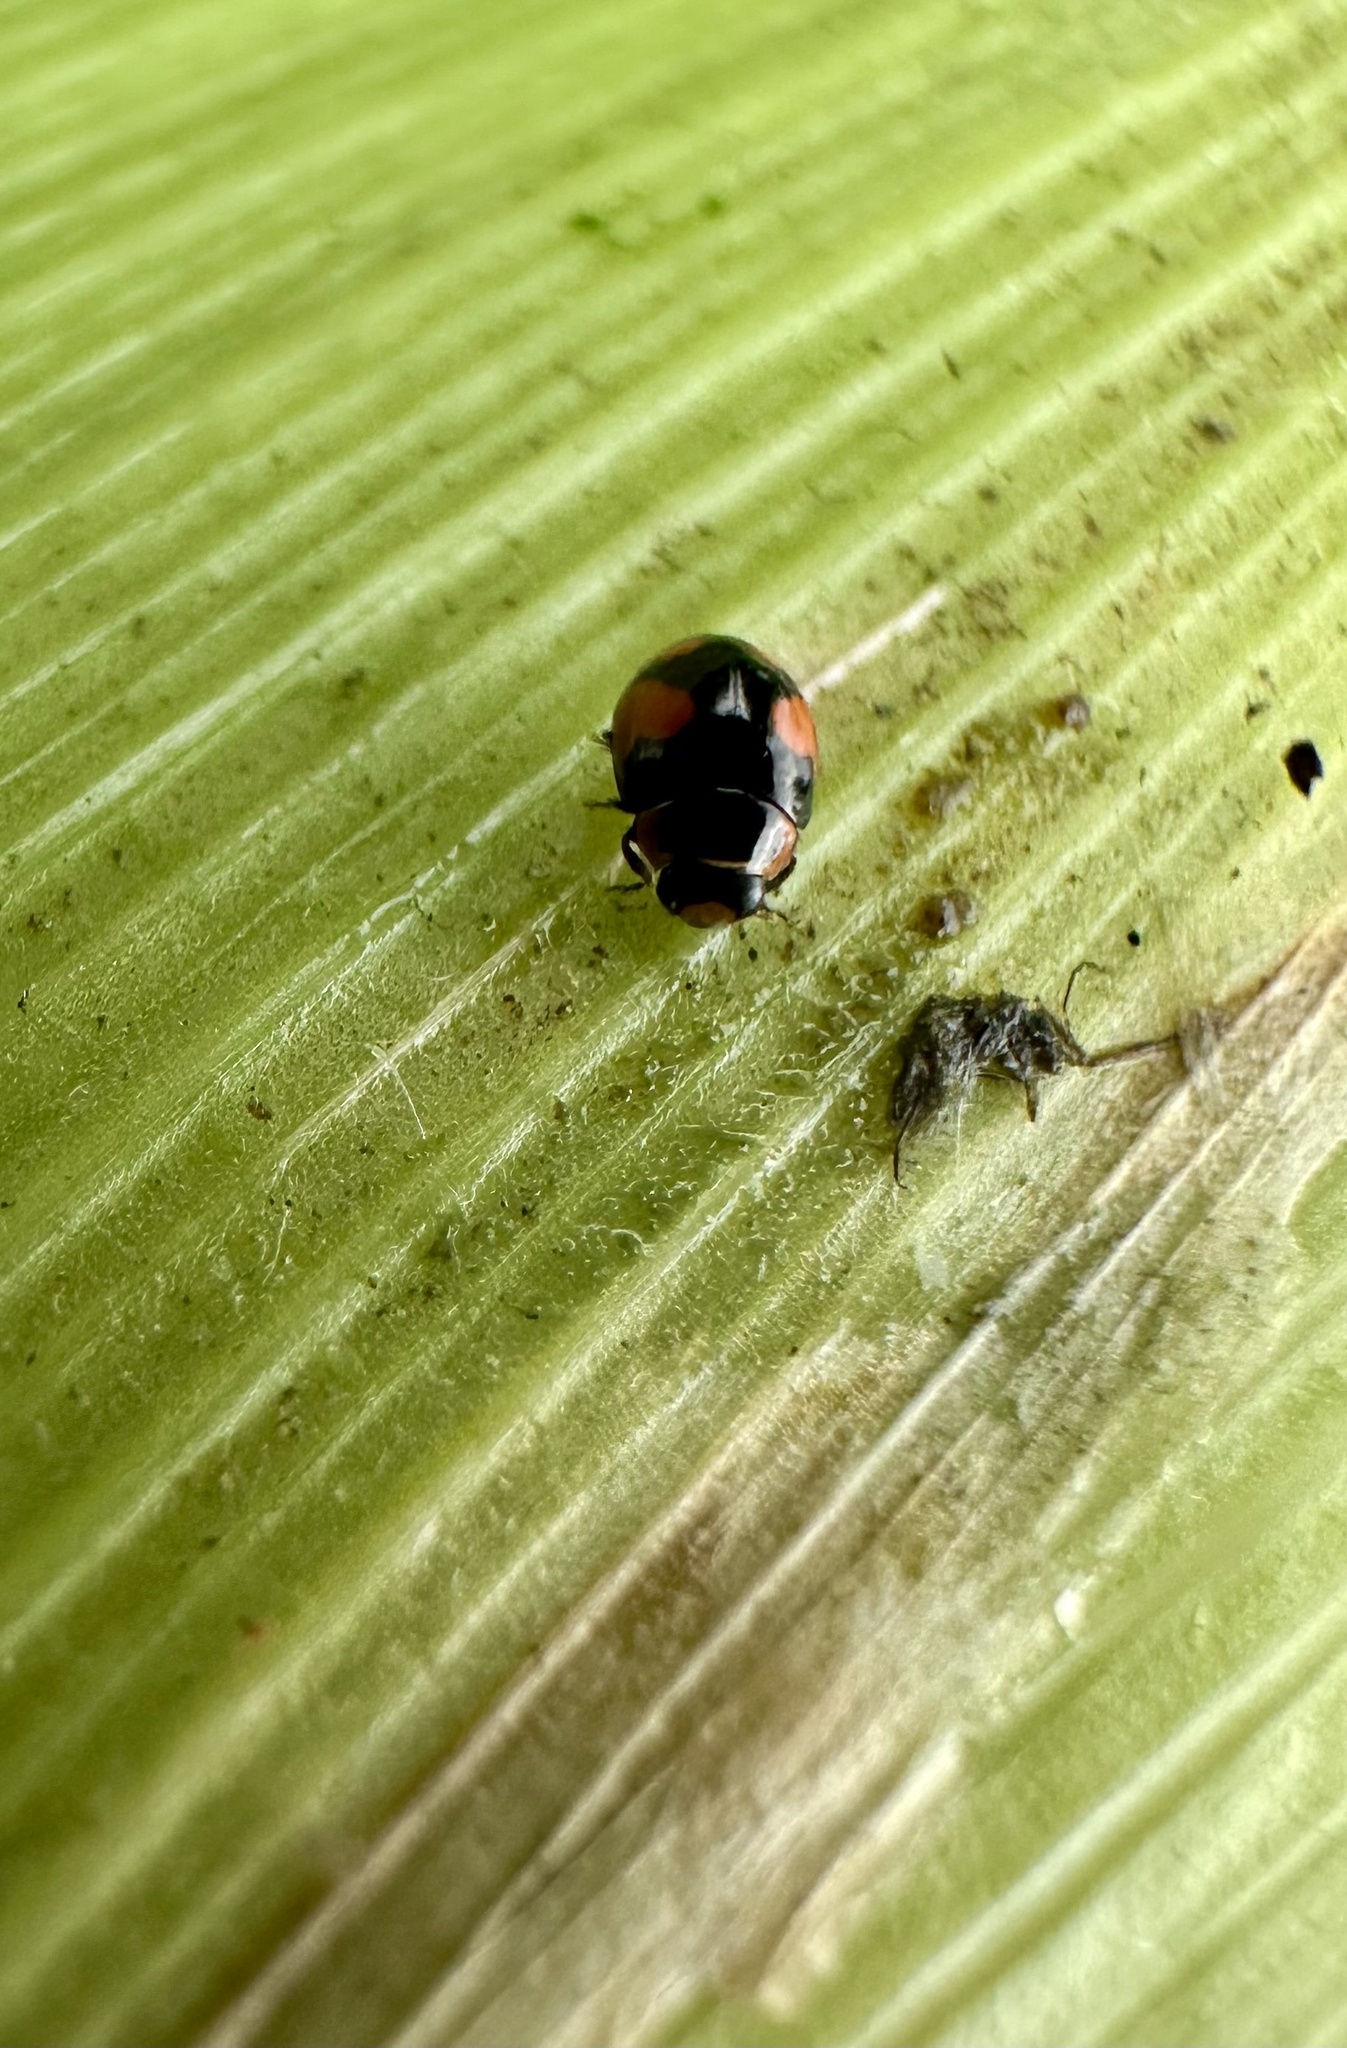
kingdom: Animalia
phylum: Arthropoda
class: Insecta
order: Coleoptera
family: Coccinellidae
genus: Hyperaspis
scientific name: Hyperaspis
